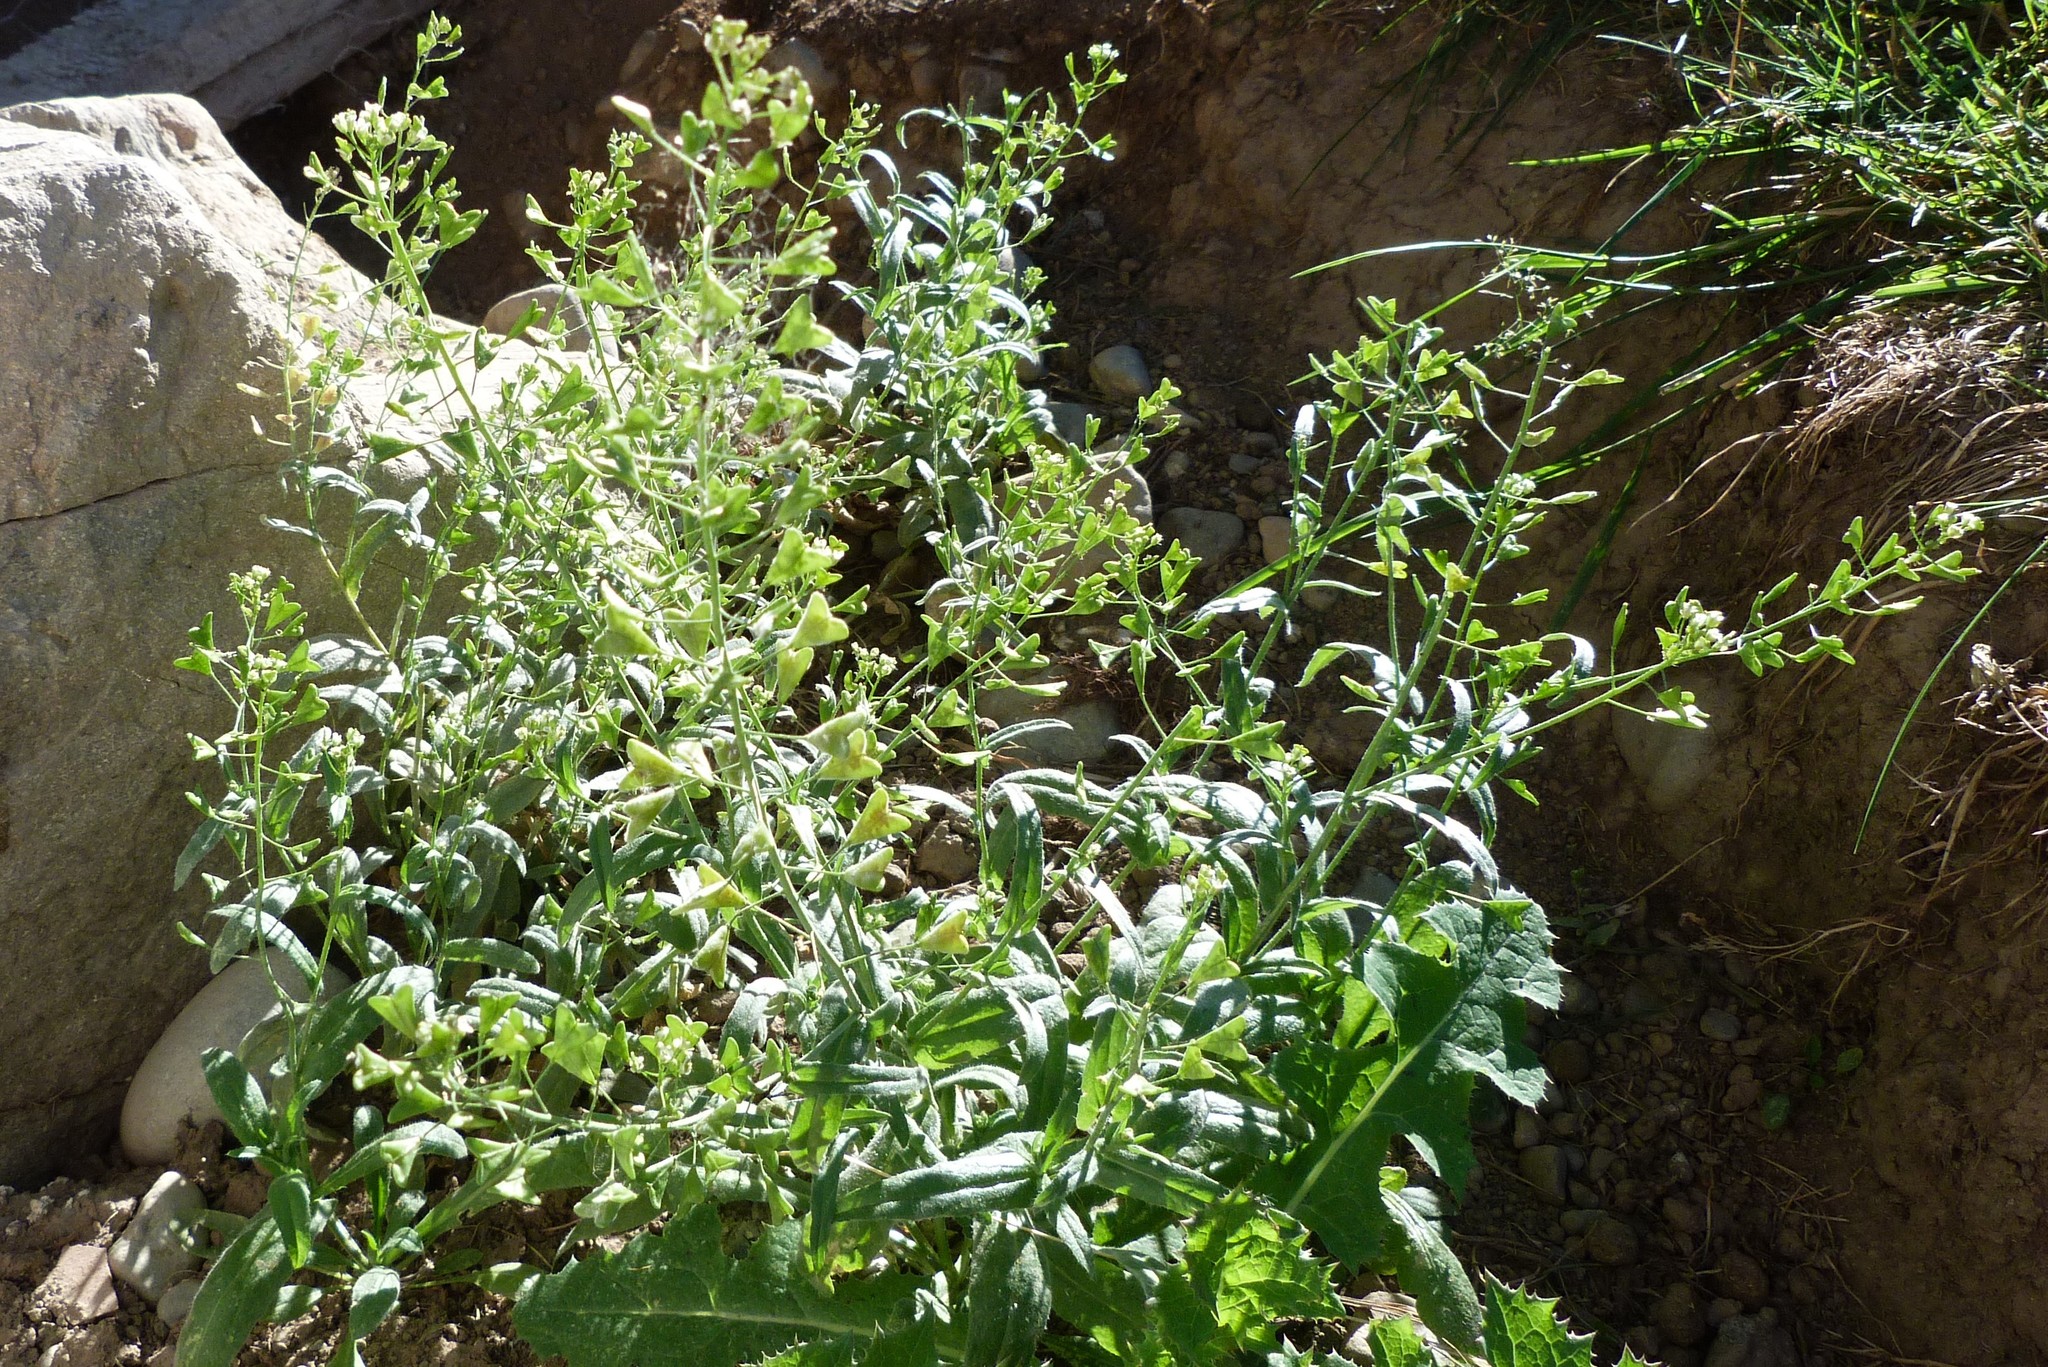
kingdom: Plantae
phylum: Tracheophyta
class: Magnoliopsida
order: Brassicales
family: Brassicaceae
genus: Capsella
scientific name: Capsella bursa-pastoris
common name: Shepherd's purse
